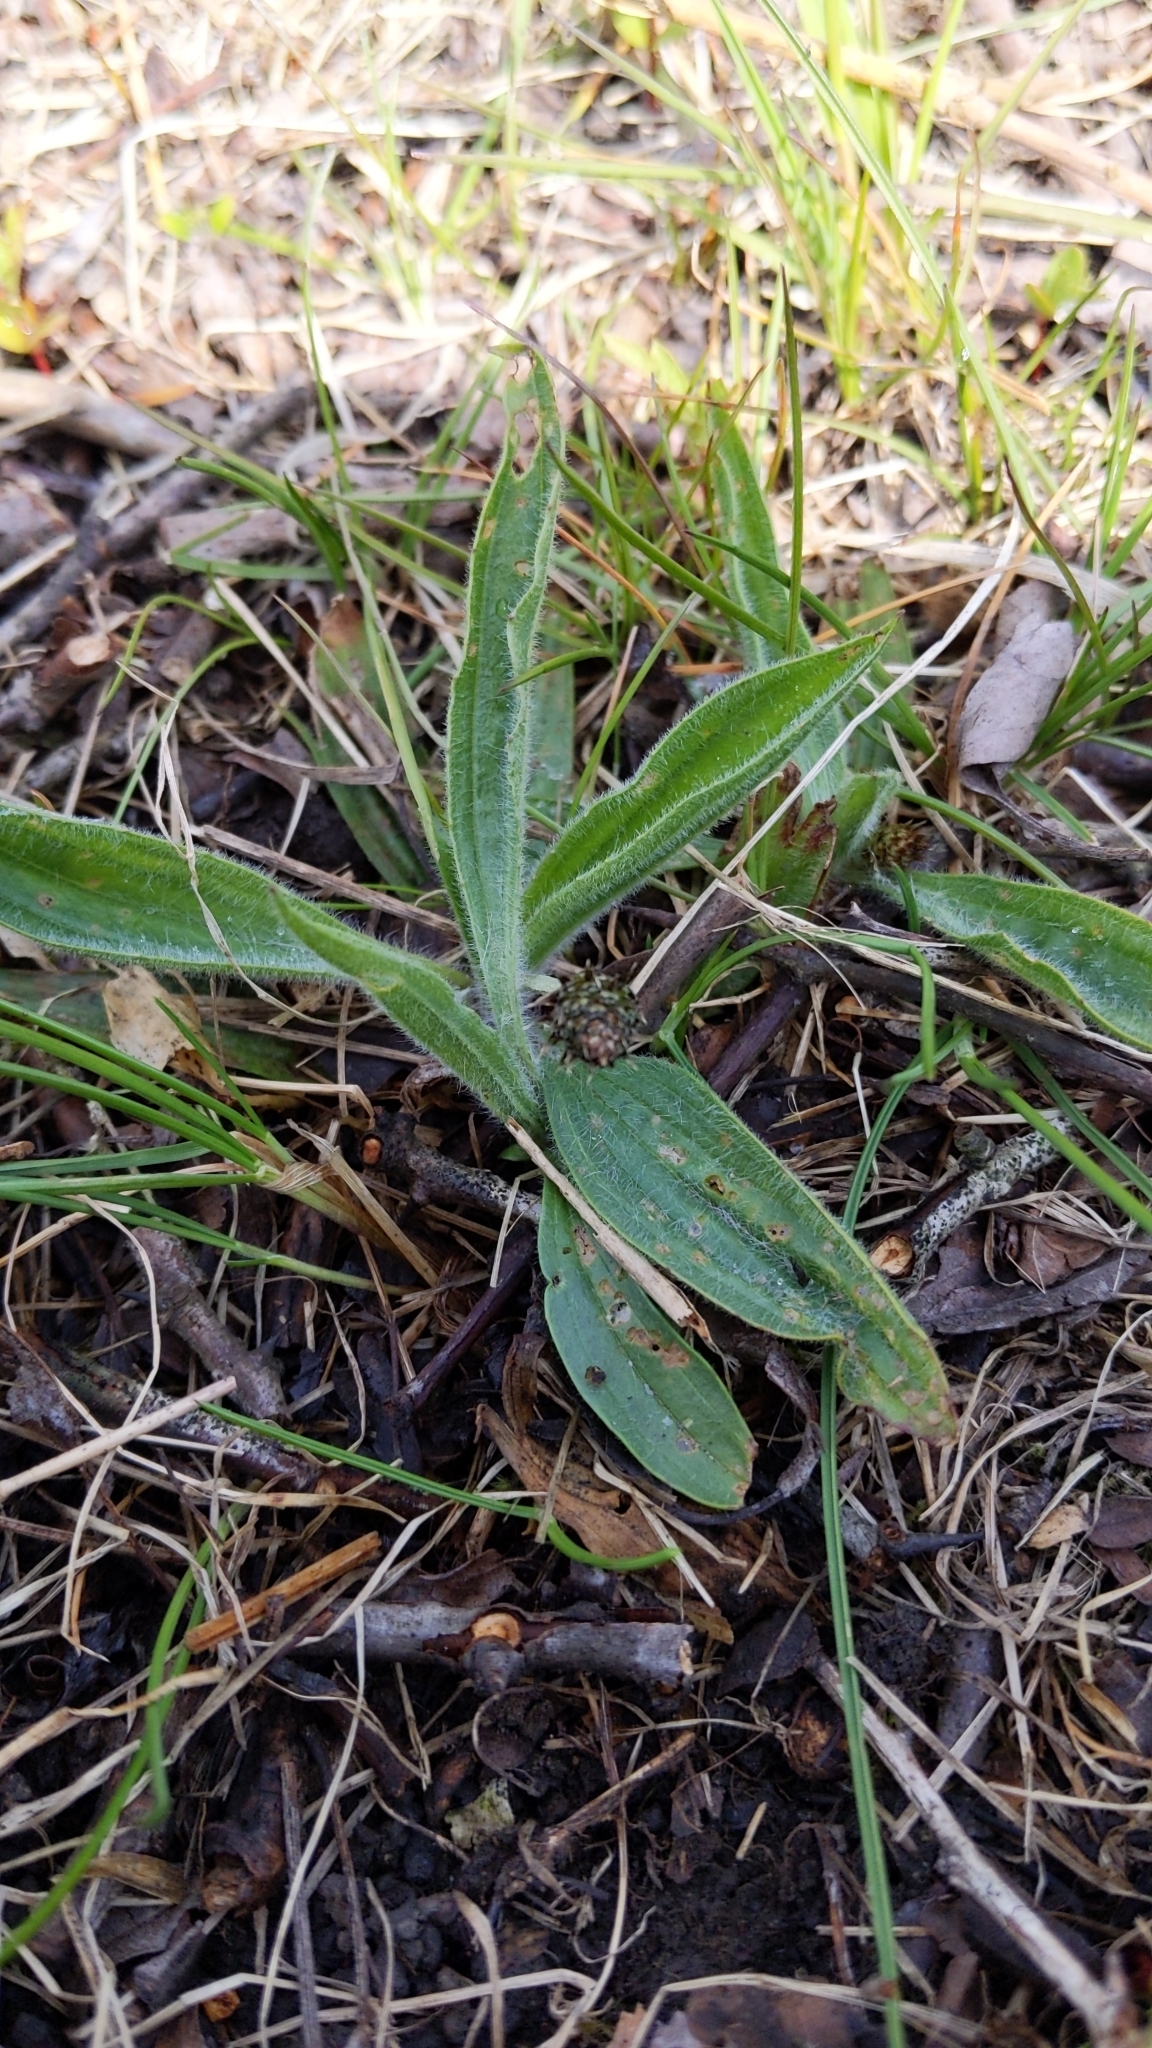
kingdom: Plantae
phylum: Tracheophyta
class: Magnoliopsida
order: Lamiales
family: Plantaginaceae
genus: Plantago
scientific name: Plantago lanceolata
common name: Ribwort plantain
